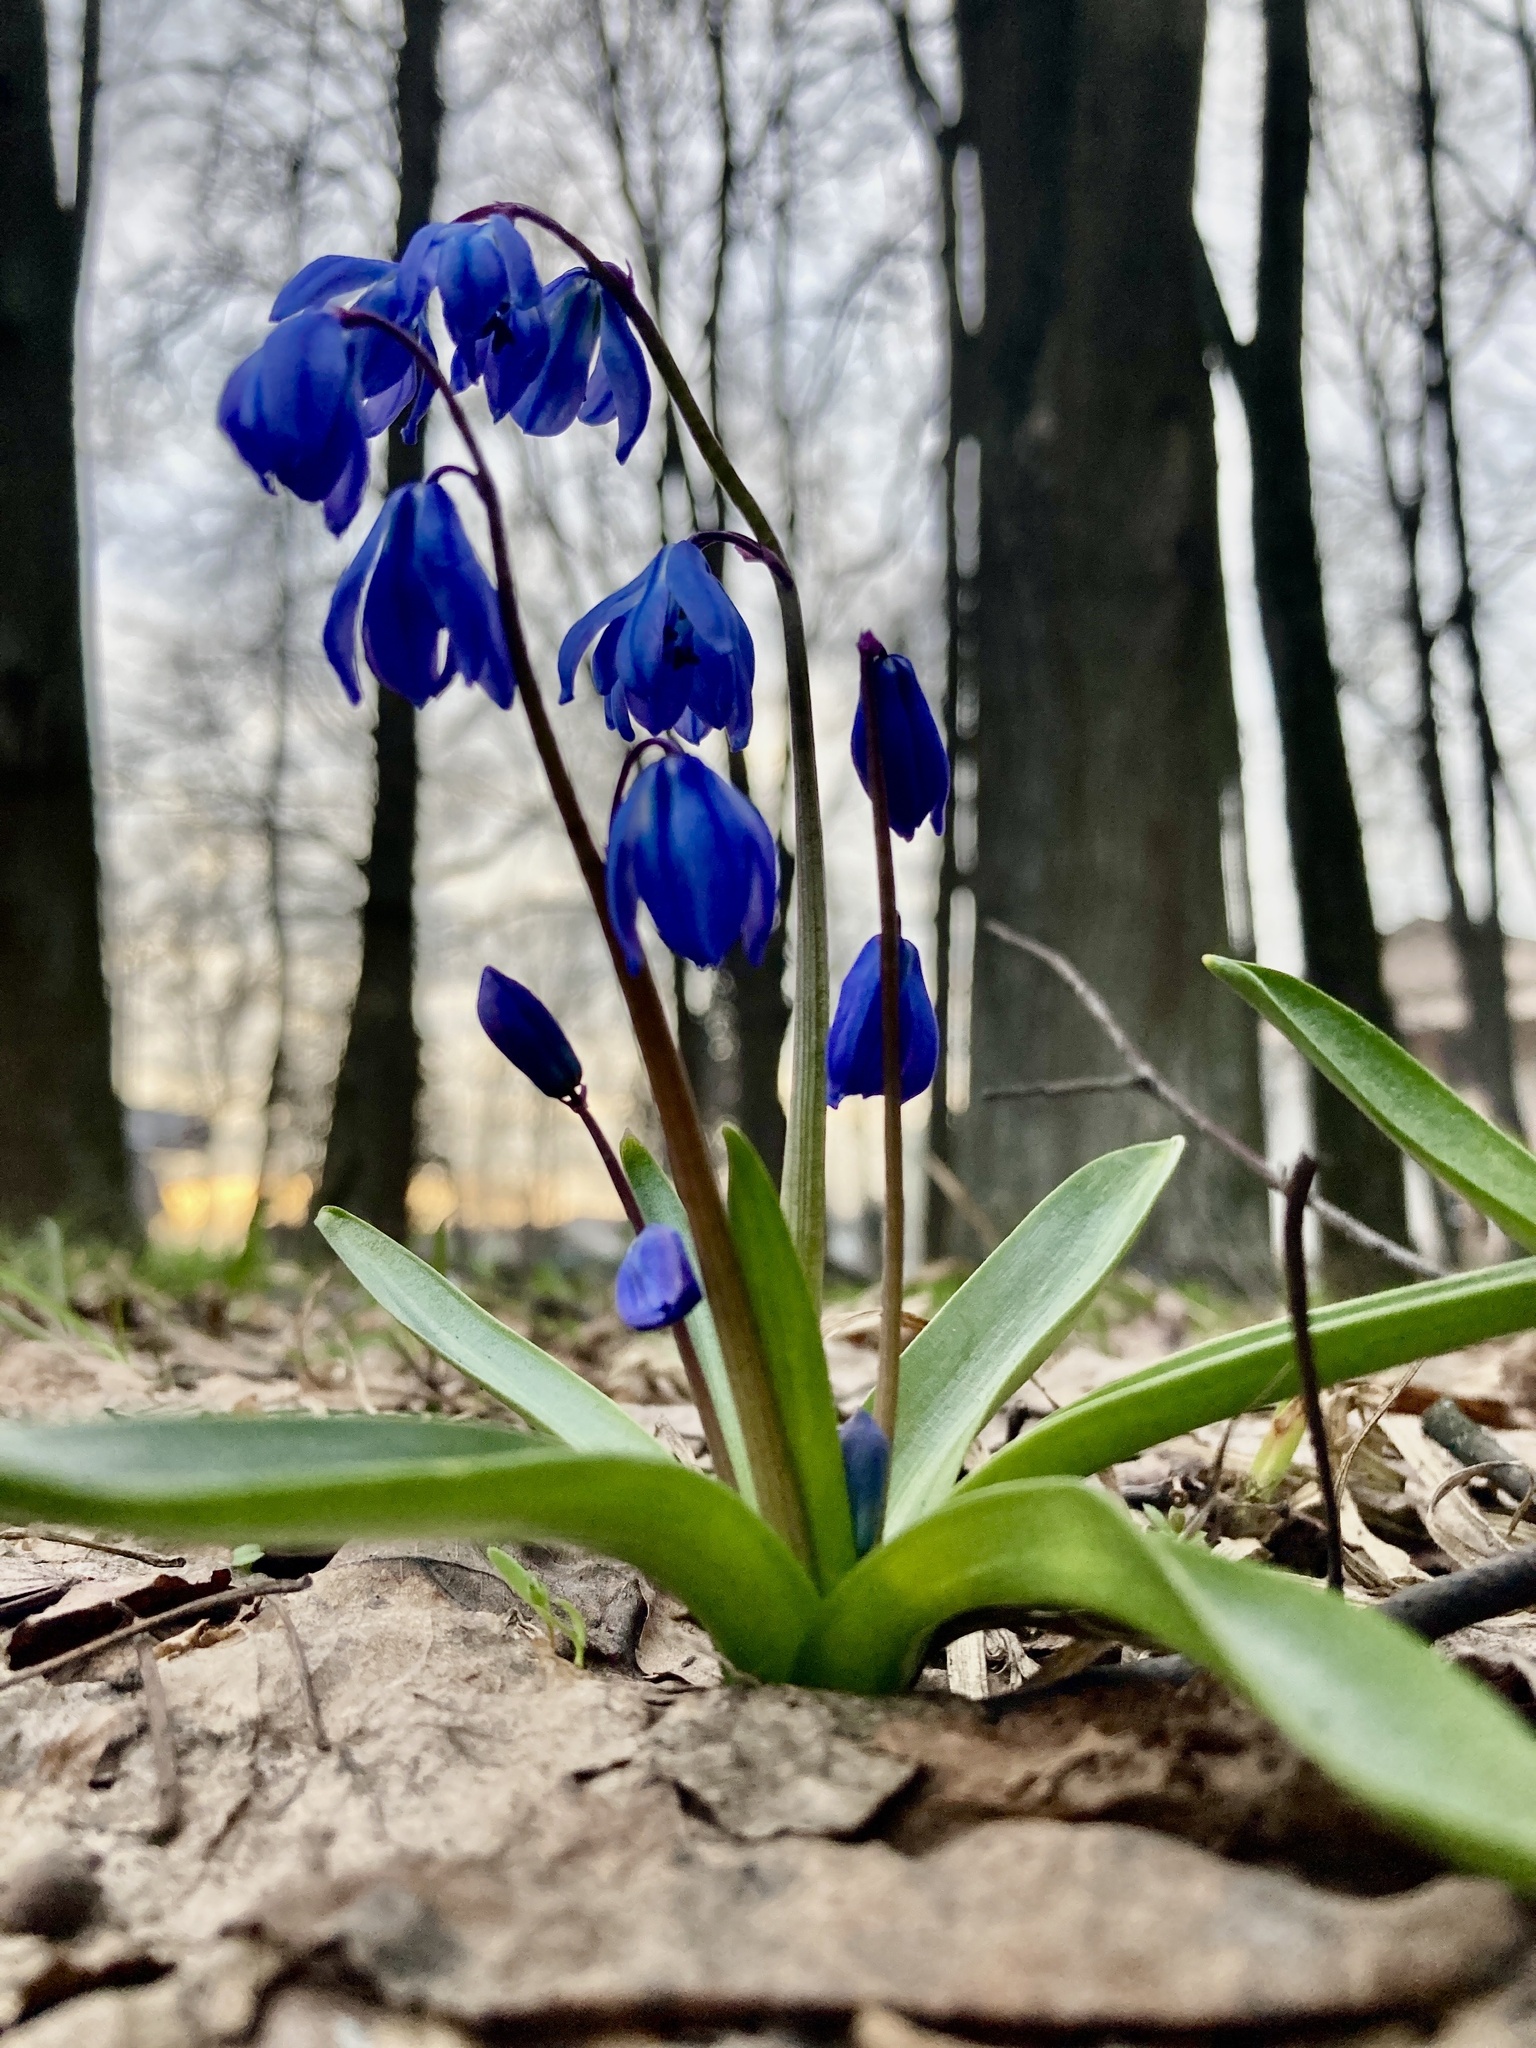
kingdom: Plantae
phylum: Tracheophyta
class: Liliopsida
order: Asparagales
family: Asparagaceae
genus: Scilla
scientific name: Scilla siberica
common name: Siberian squill
